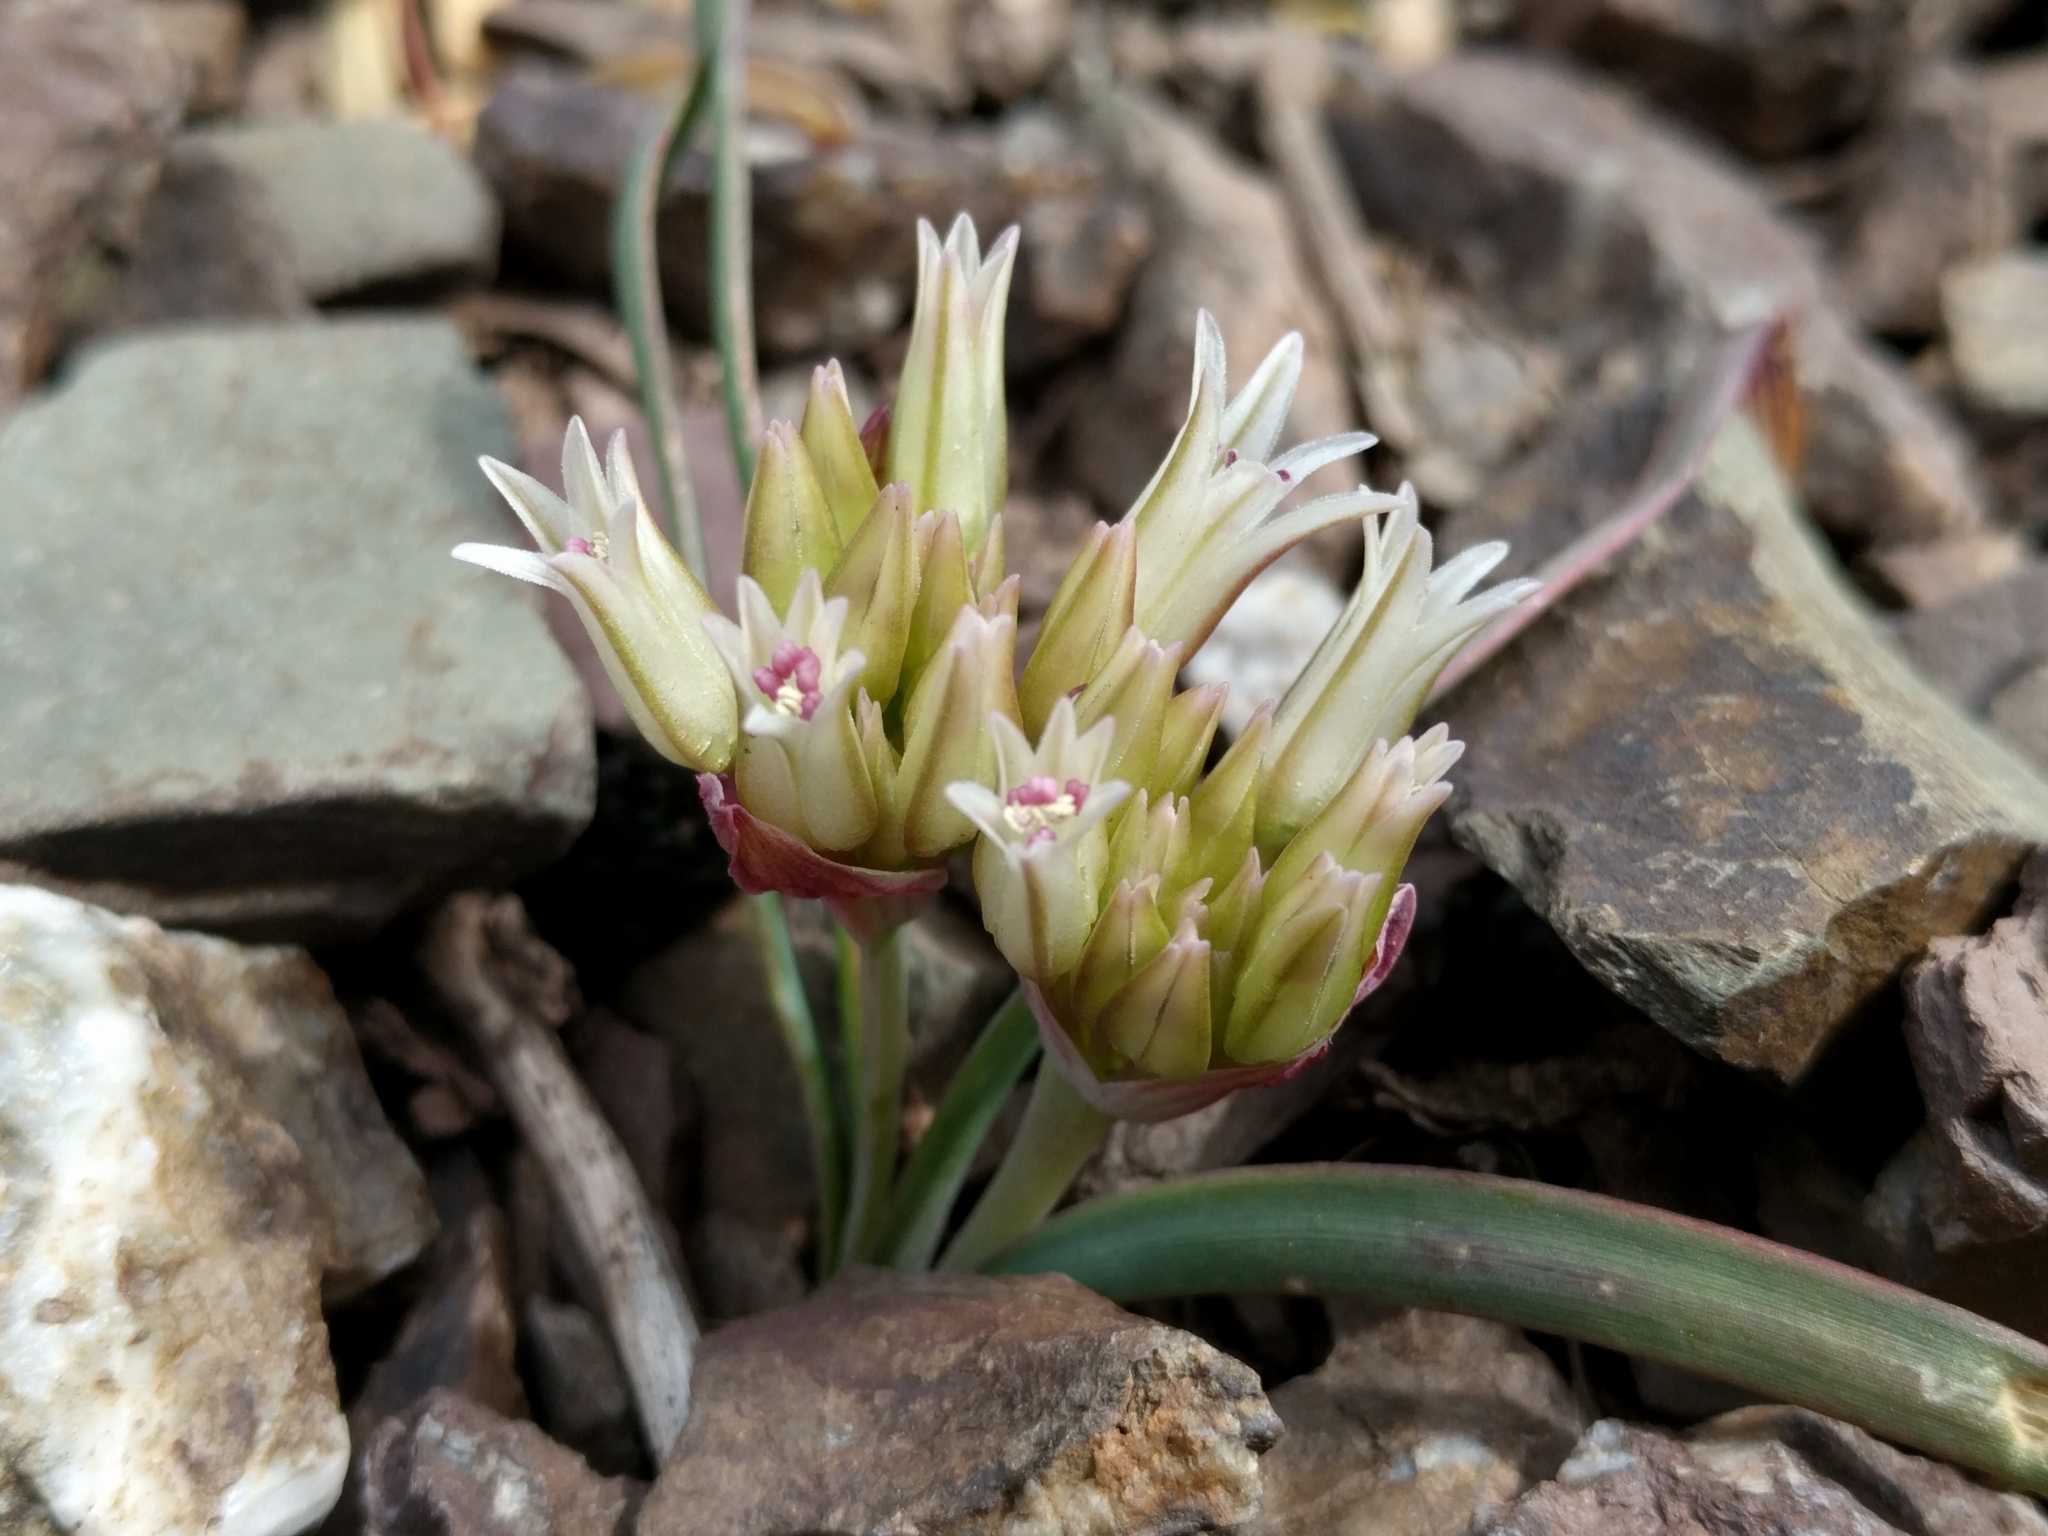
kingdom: Plantae
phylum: Tracheophyta
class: Liliopsida
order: Asparagales
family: Amaryllidaceae
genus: Allium
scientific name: Allium falcifolium
